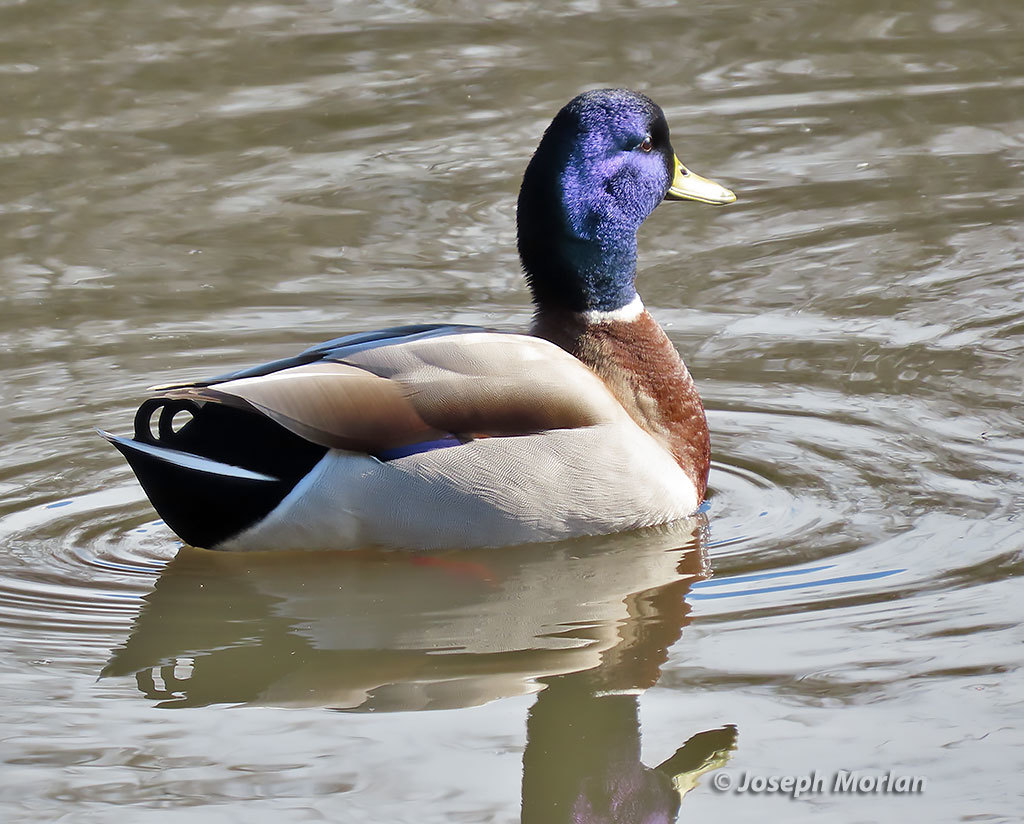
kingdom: Animalia
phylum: Chordata
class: Aves
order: Anseriformes
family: Anatidae
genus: Anas
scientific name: Anas platyrhynchos
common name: Mallard
